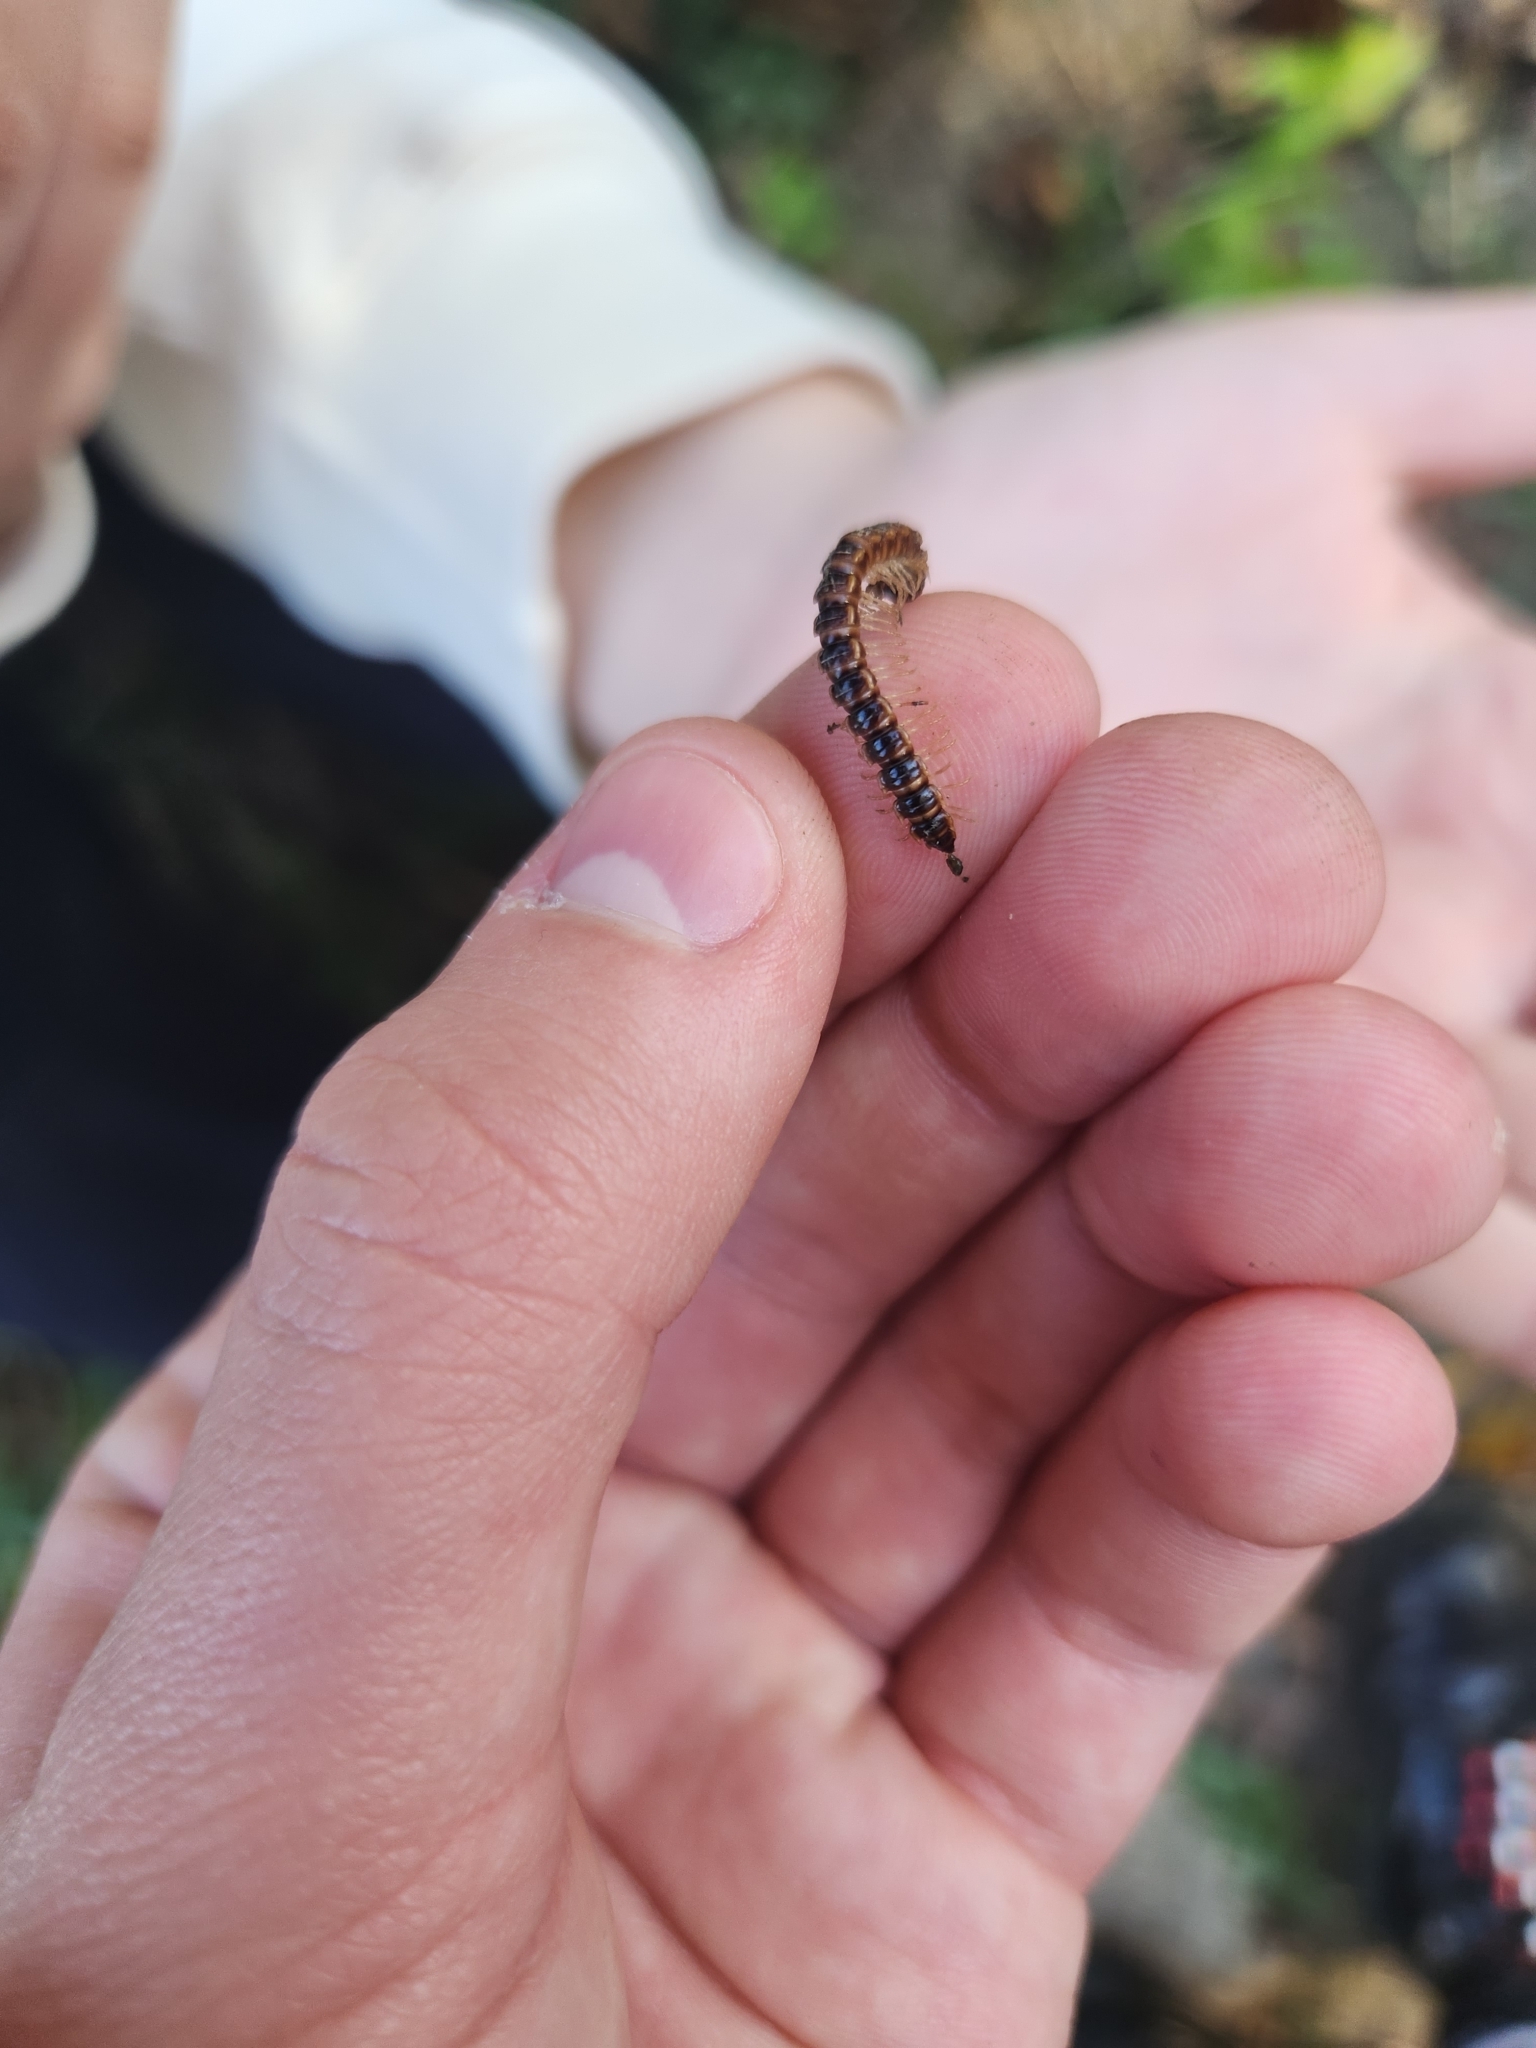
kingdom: Animalia
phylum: Arthropoda
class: Diplopoda
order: Polydesmida
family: Paradoxosomatidae
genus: Oxidus
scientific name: Oxidus gracilis
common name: Greenhouse millipede
